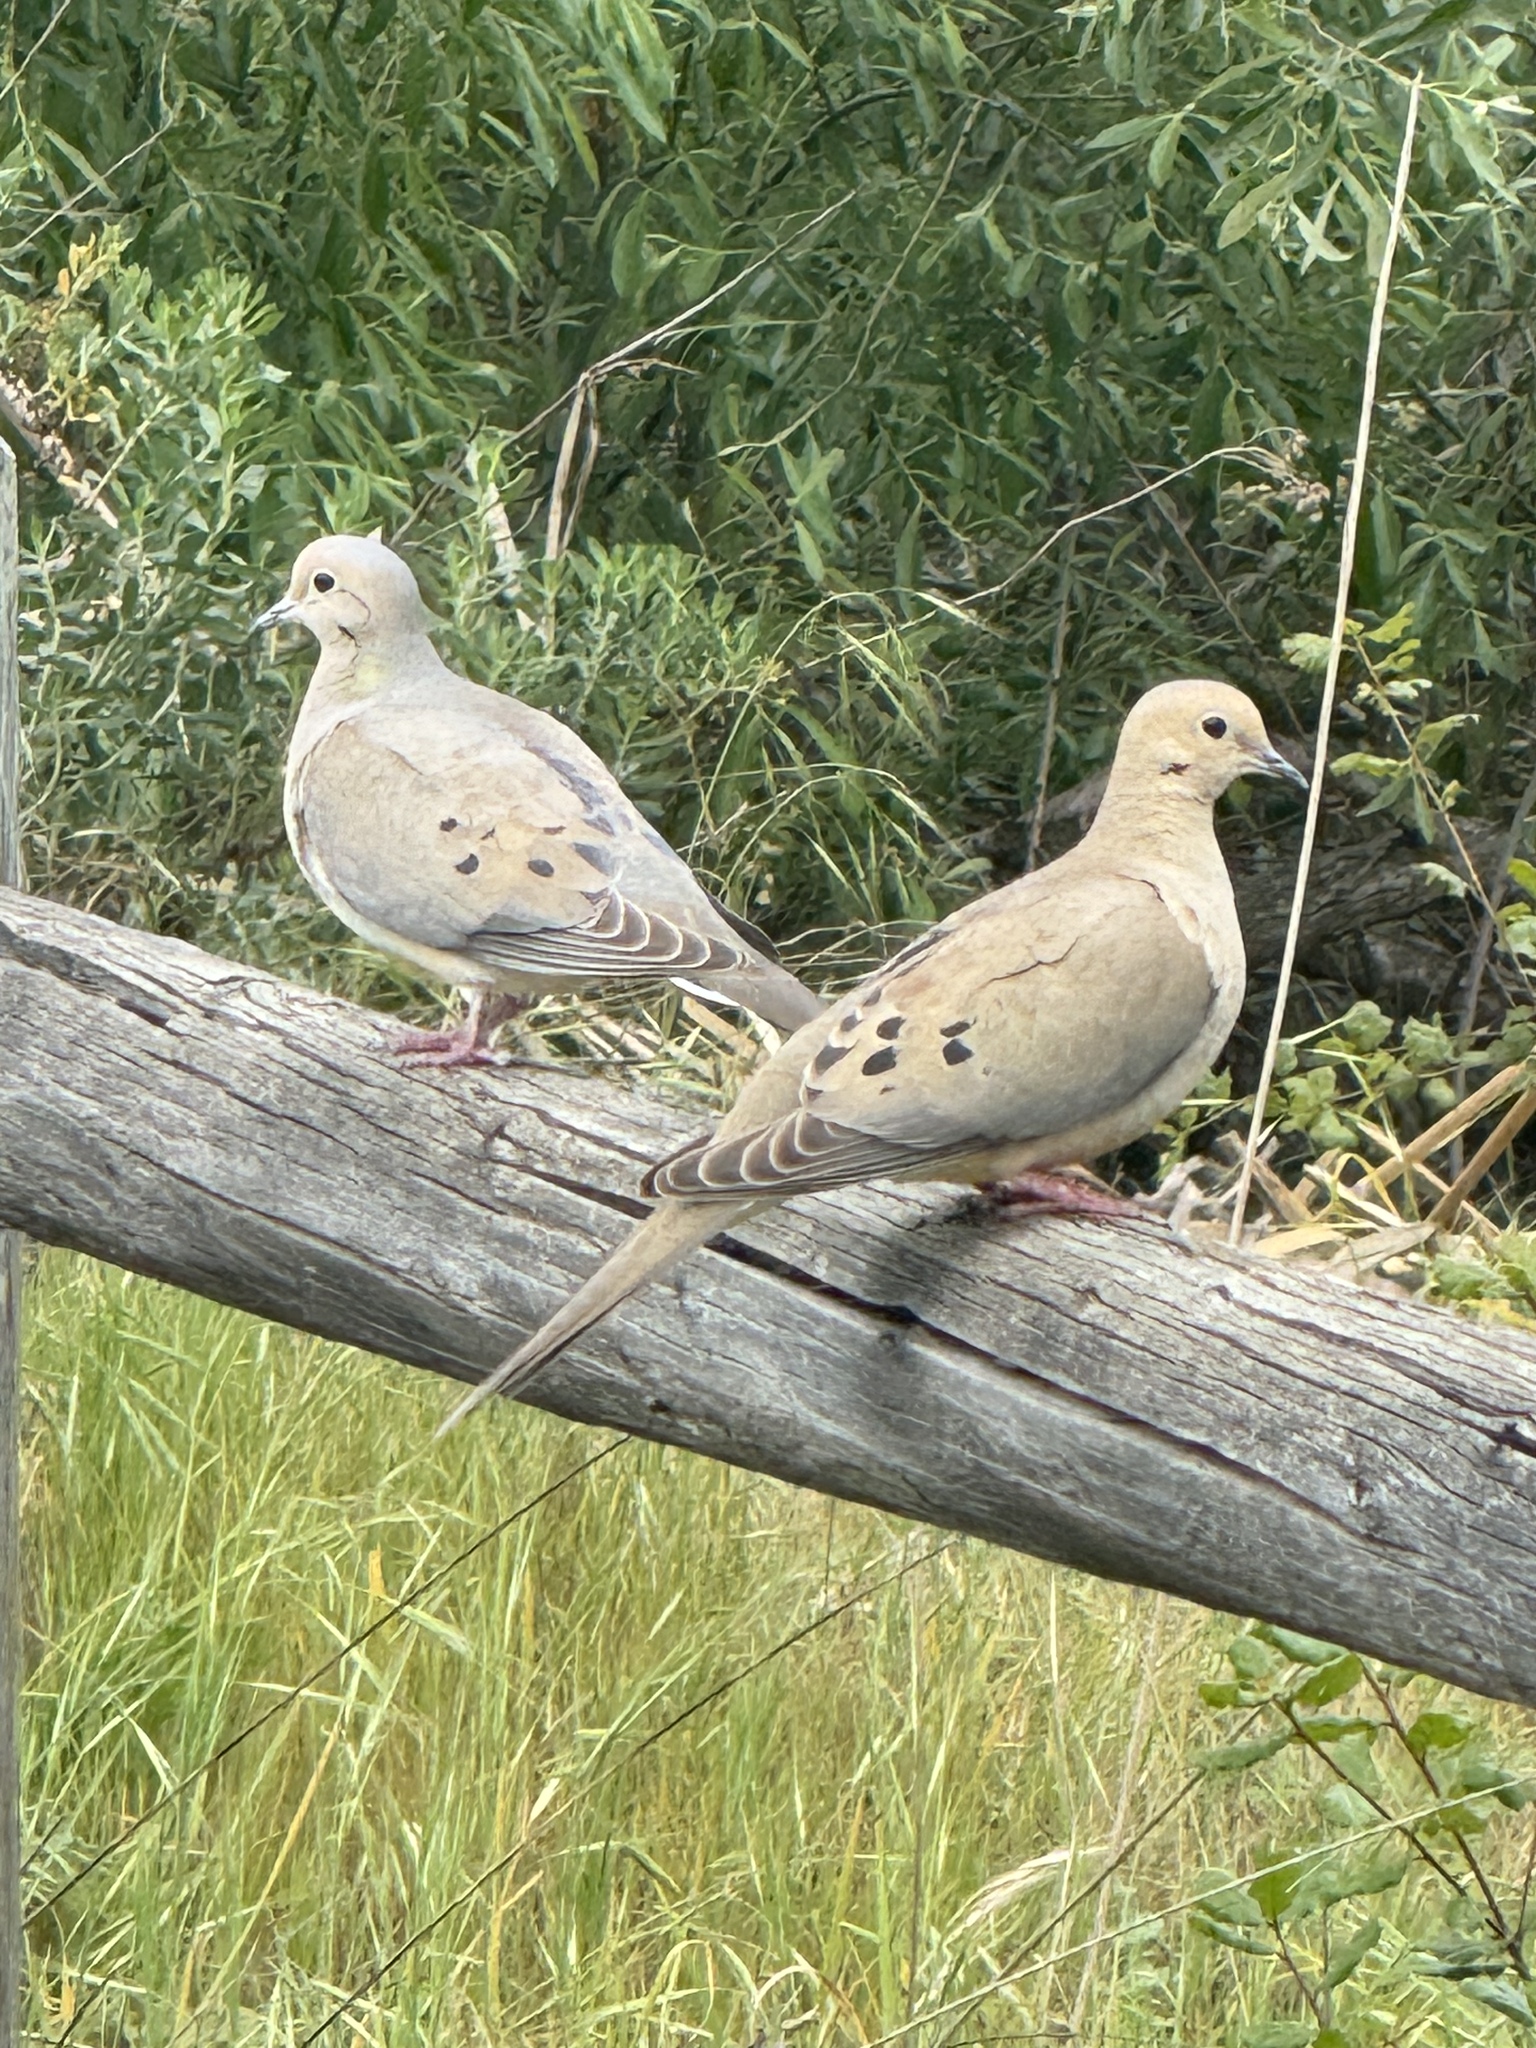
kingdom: Animalia
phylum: Chordata
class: Aves
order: Columbiformes
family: Columbidae
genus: Zenaida
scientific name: Zenaida macroura
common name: Mourning dove
